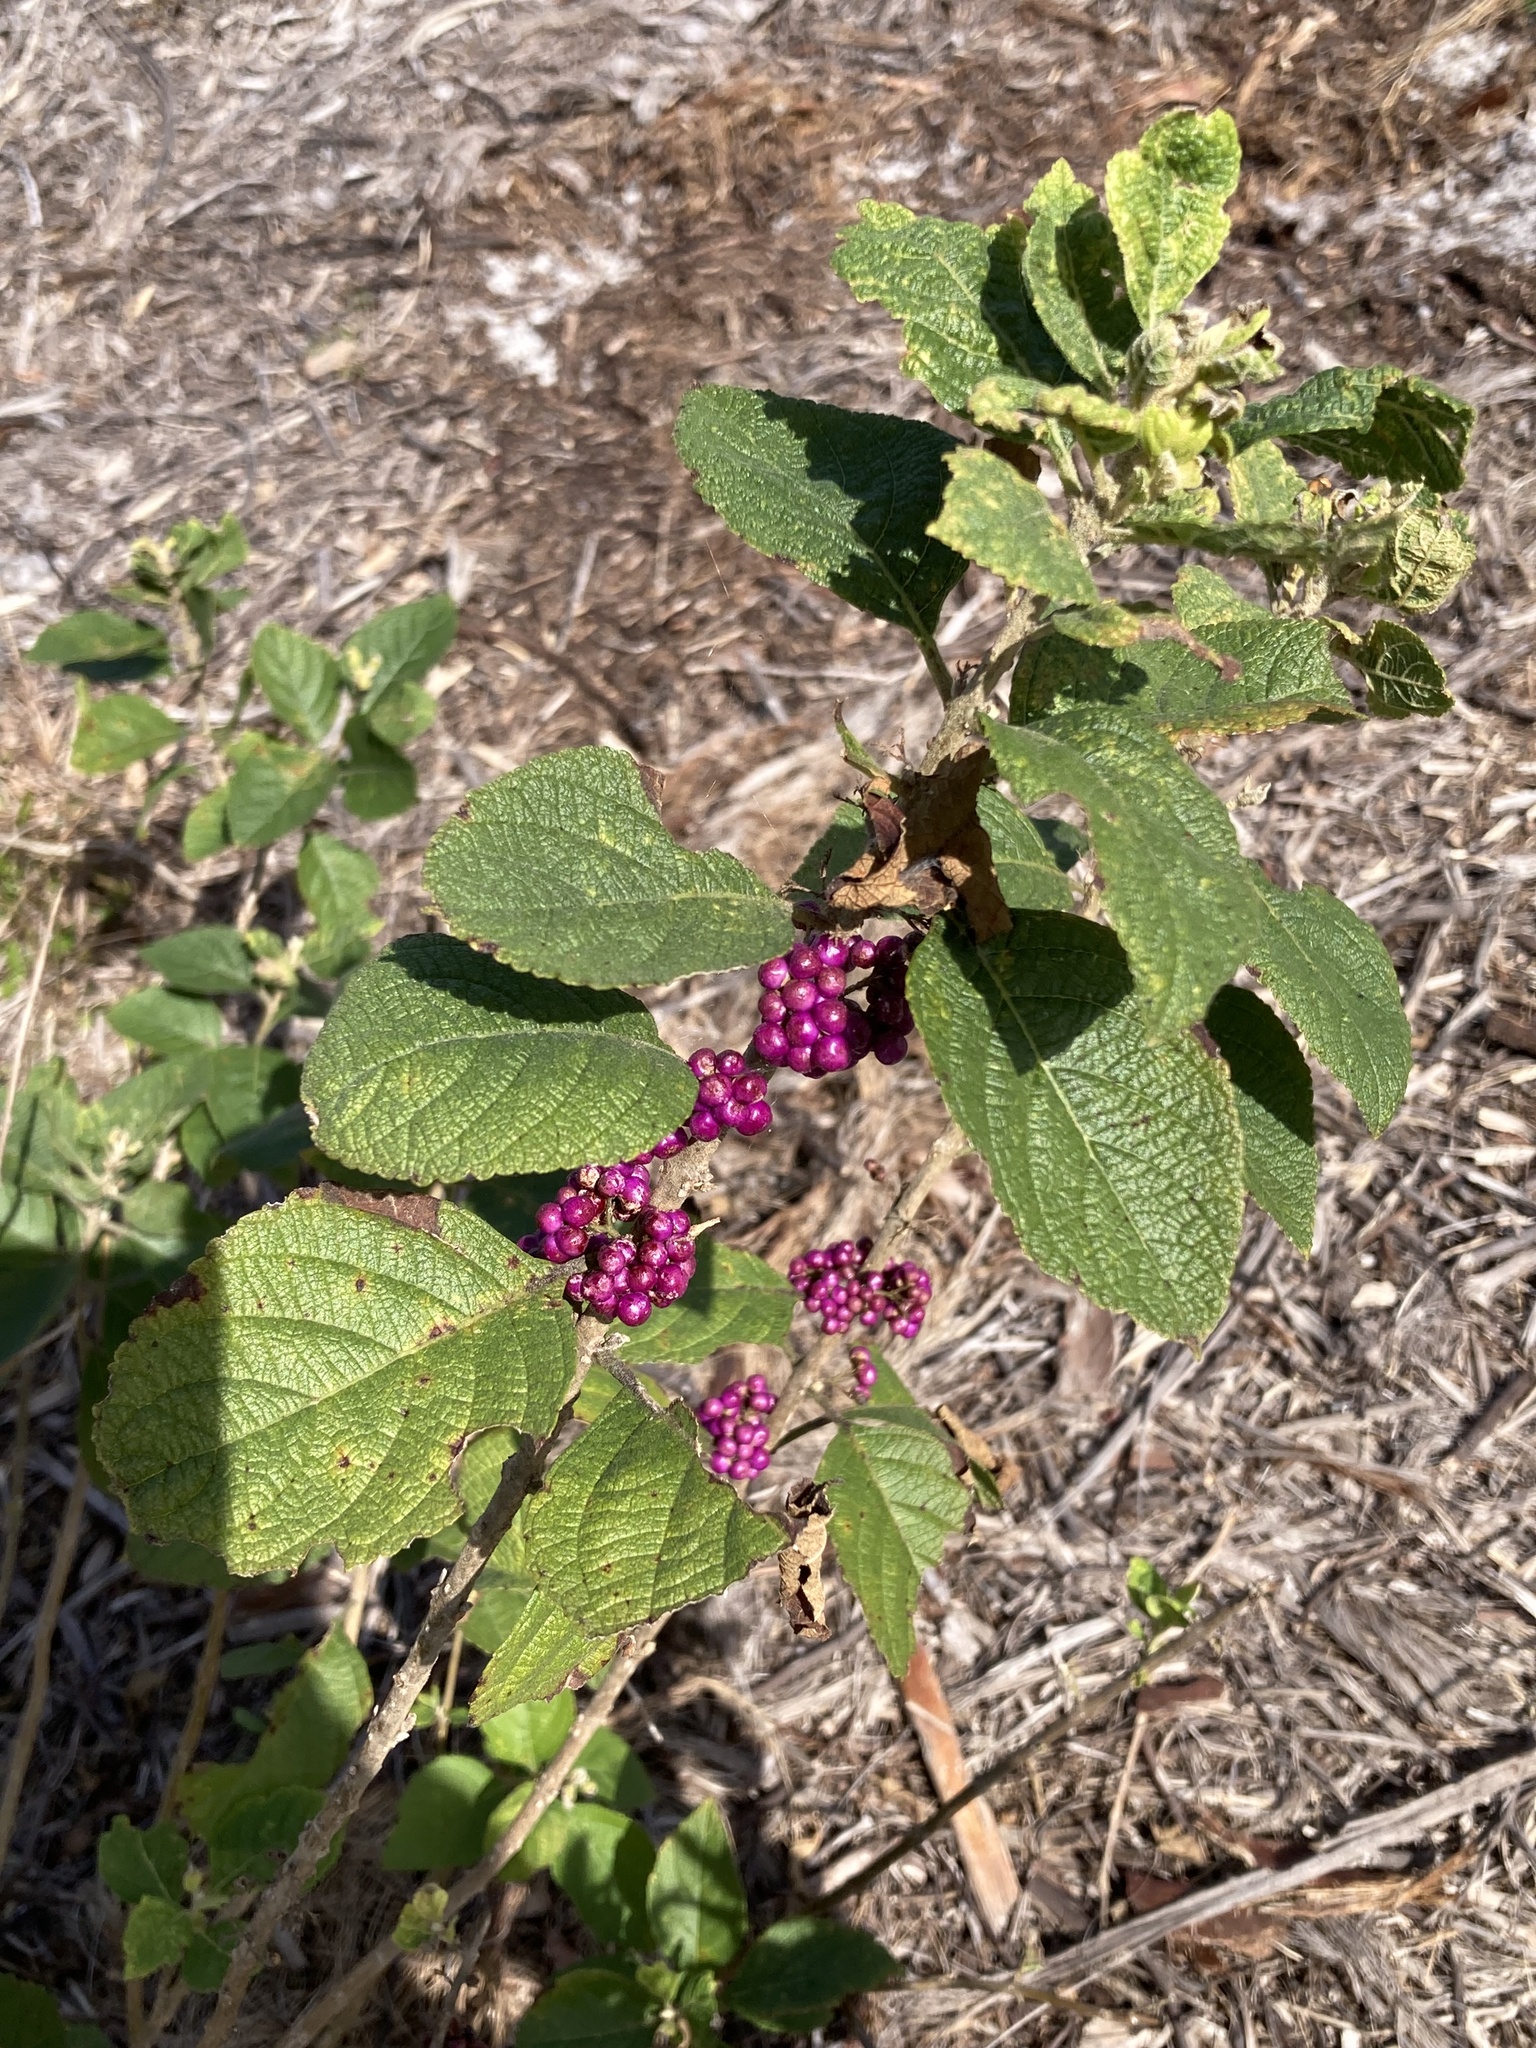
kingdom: Plantae
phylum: Tracheophyta
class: Magnoliopsida
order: Lamiales
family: Lamiaceae
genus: Callicarpa
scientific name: Callicarpa americana
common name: American beautyberry
